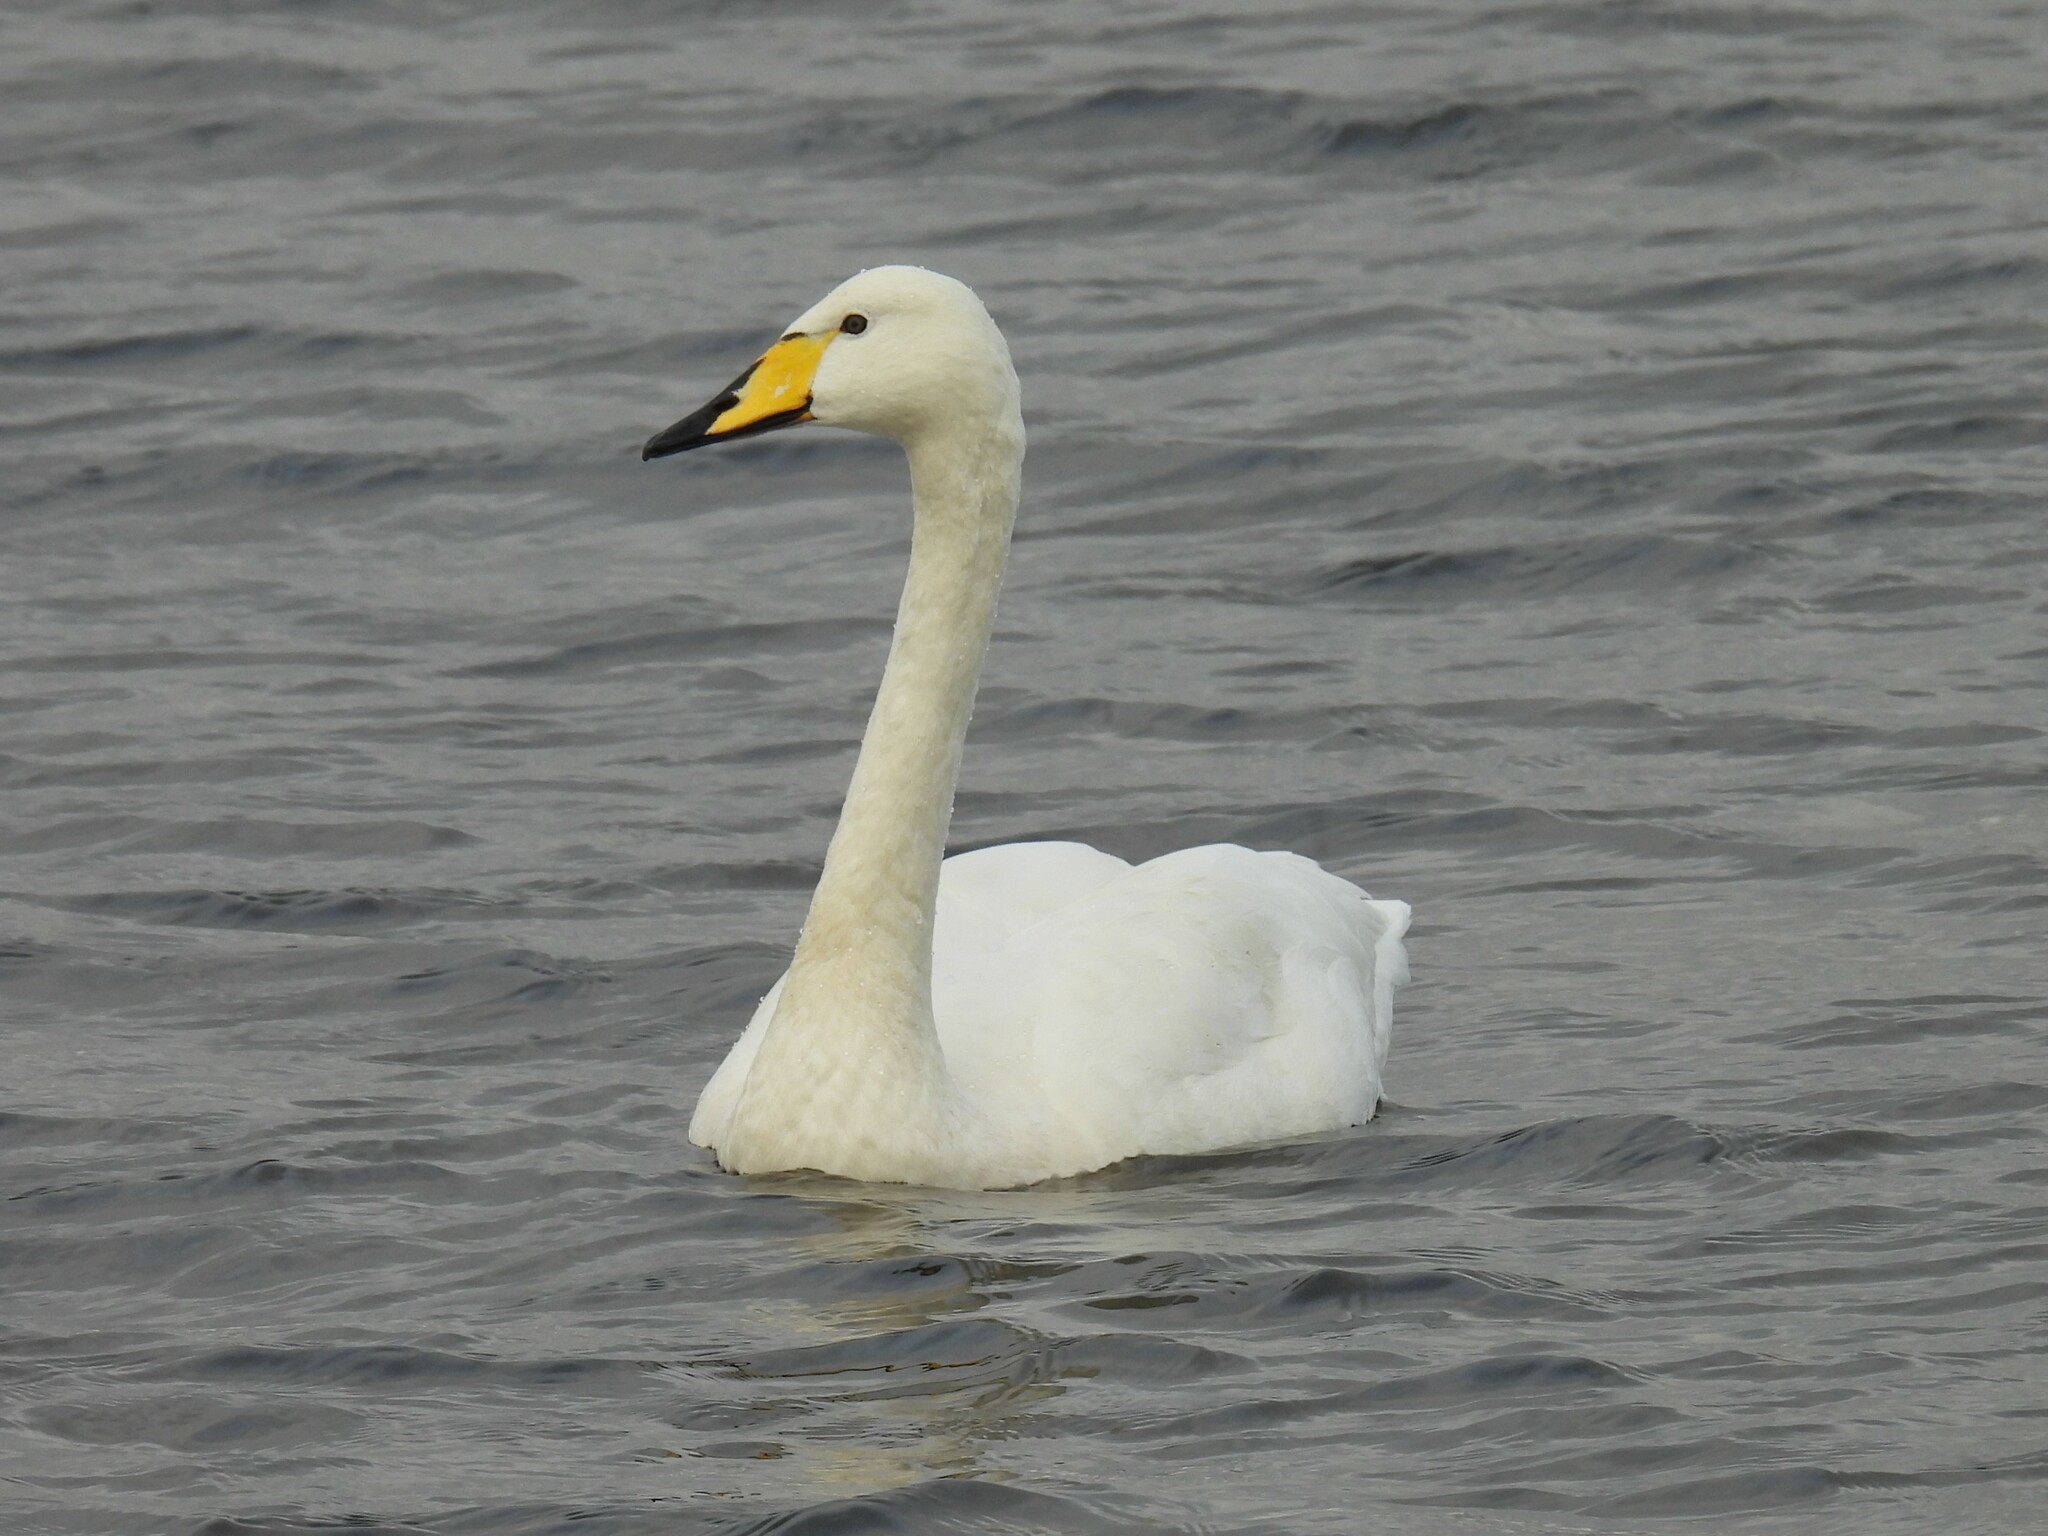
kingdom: Animalia
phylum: Chordata
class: Aves
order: Anseriformes
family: Anatidae
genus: Cygnus
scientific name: Cygnus cygnus
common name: Whooper swan
